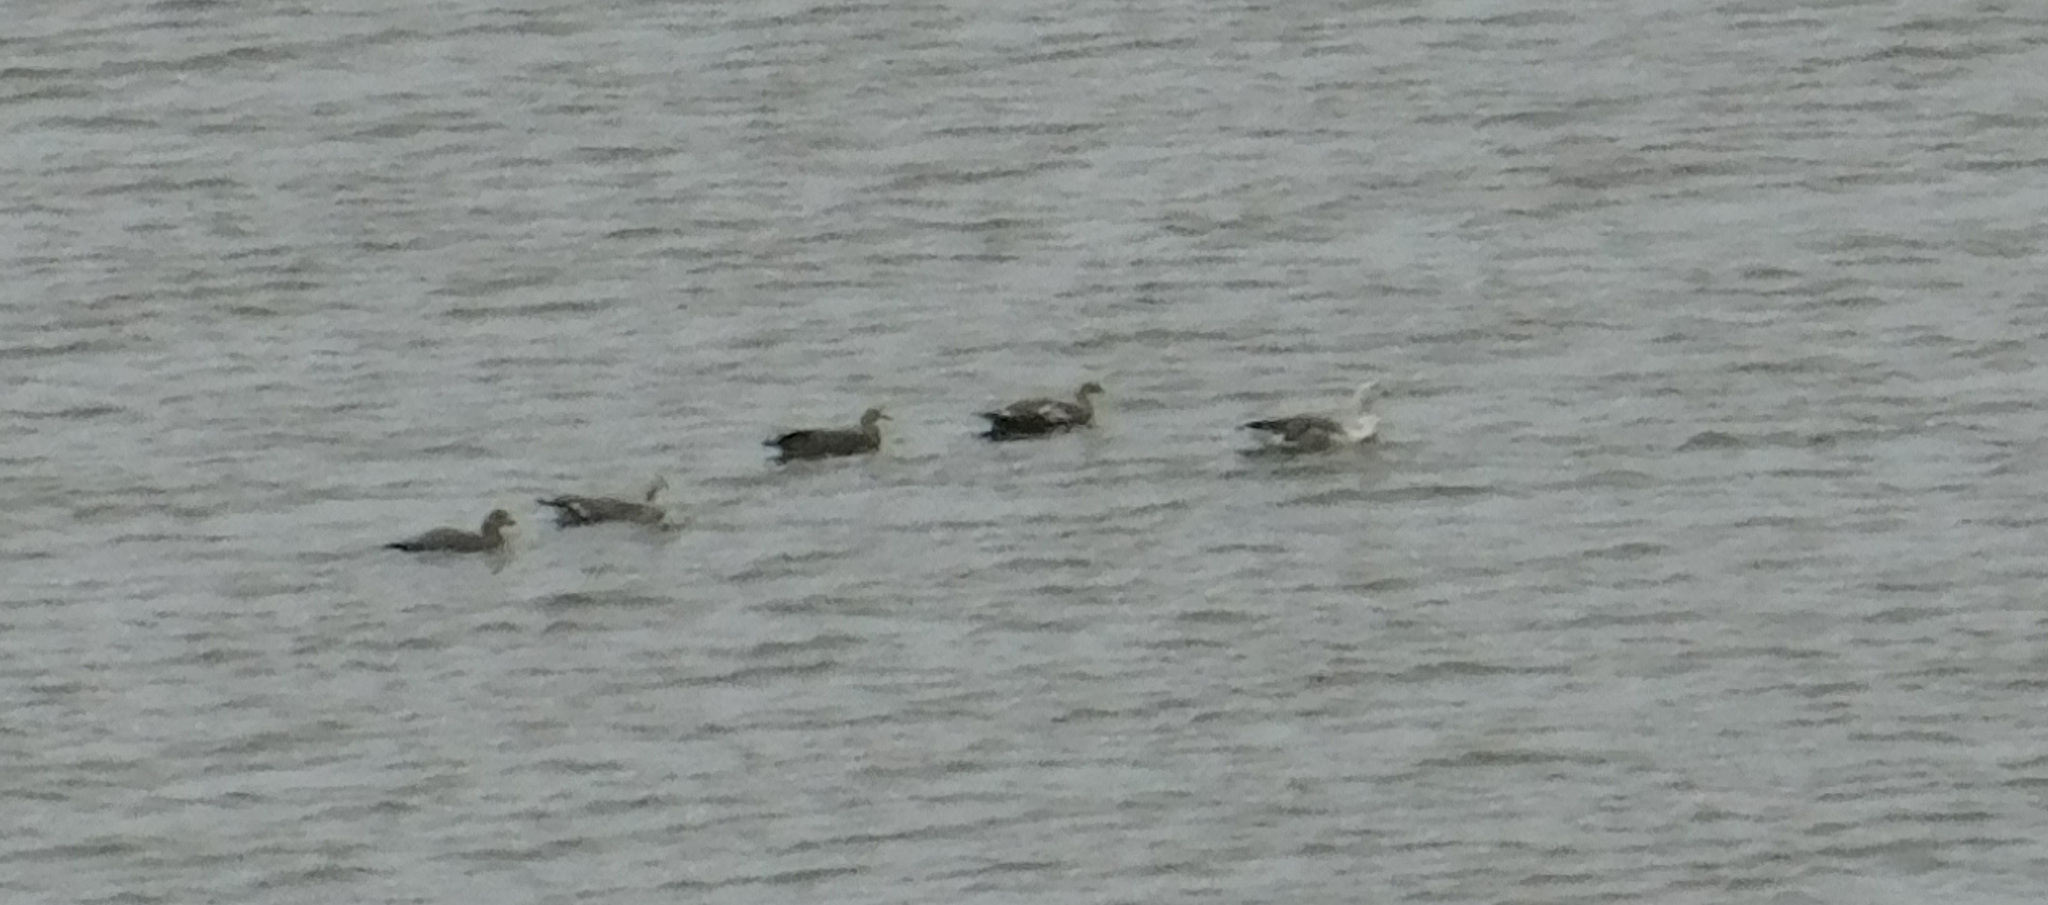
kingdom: Animalia
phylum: Chordata
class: Aves
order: Anseriformes
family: Anatidae
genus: Chloephaga
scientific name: Chloephaga picta
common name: Upland goose
